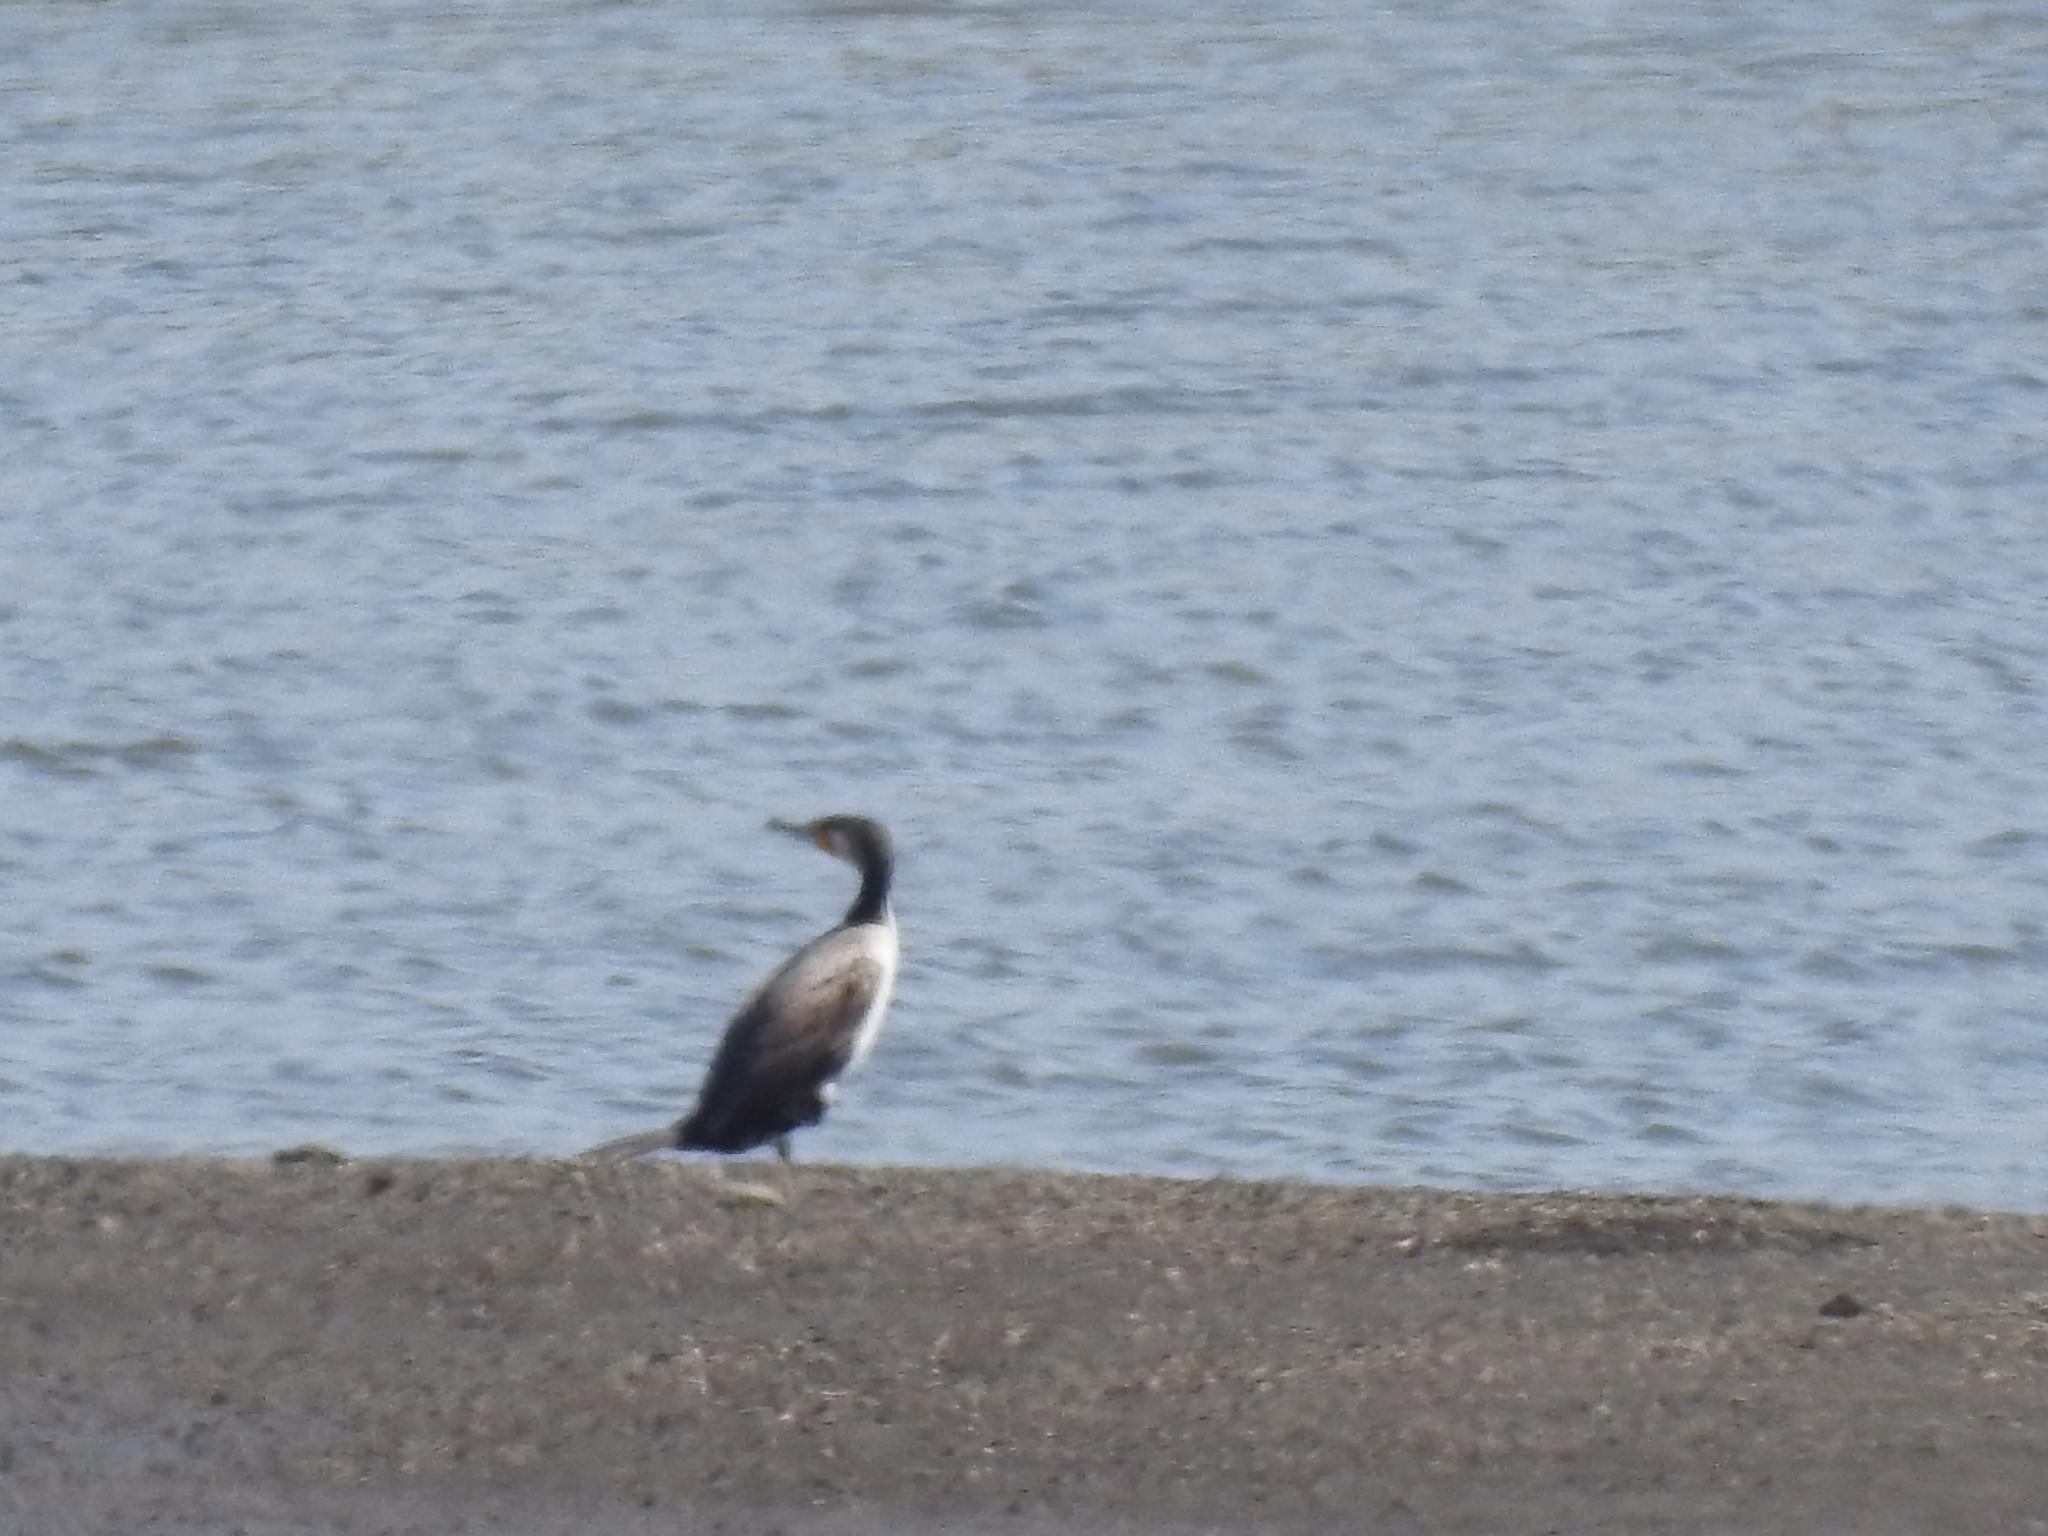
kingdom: Animalia
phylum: Chordata
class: Aves
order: Suliformes
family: Phalacrocoracidae
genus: Phalacrocorax
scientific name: Phalacrocorax carbo
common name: Great cormorant
